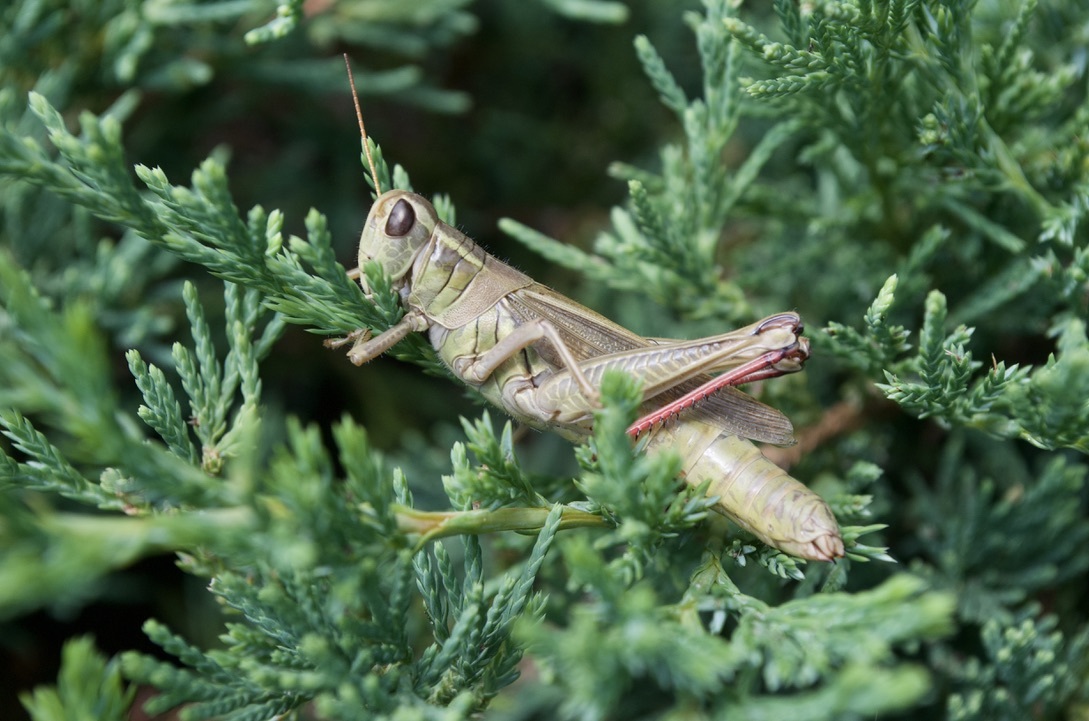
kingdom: Animalia
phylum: Arthropoda
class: Insecta
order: Orthoptera
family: Acrididae
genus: Melanoplus
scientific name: Melanoplus bivittatus
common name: Two-striped grasshopper
